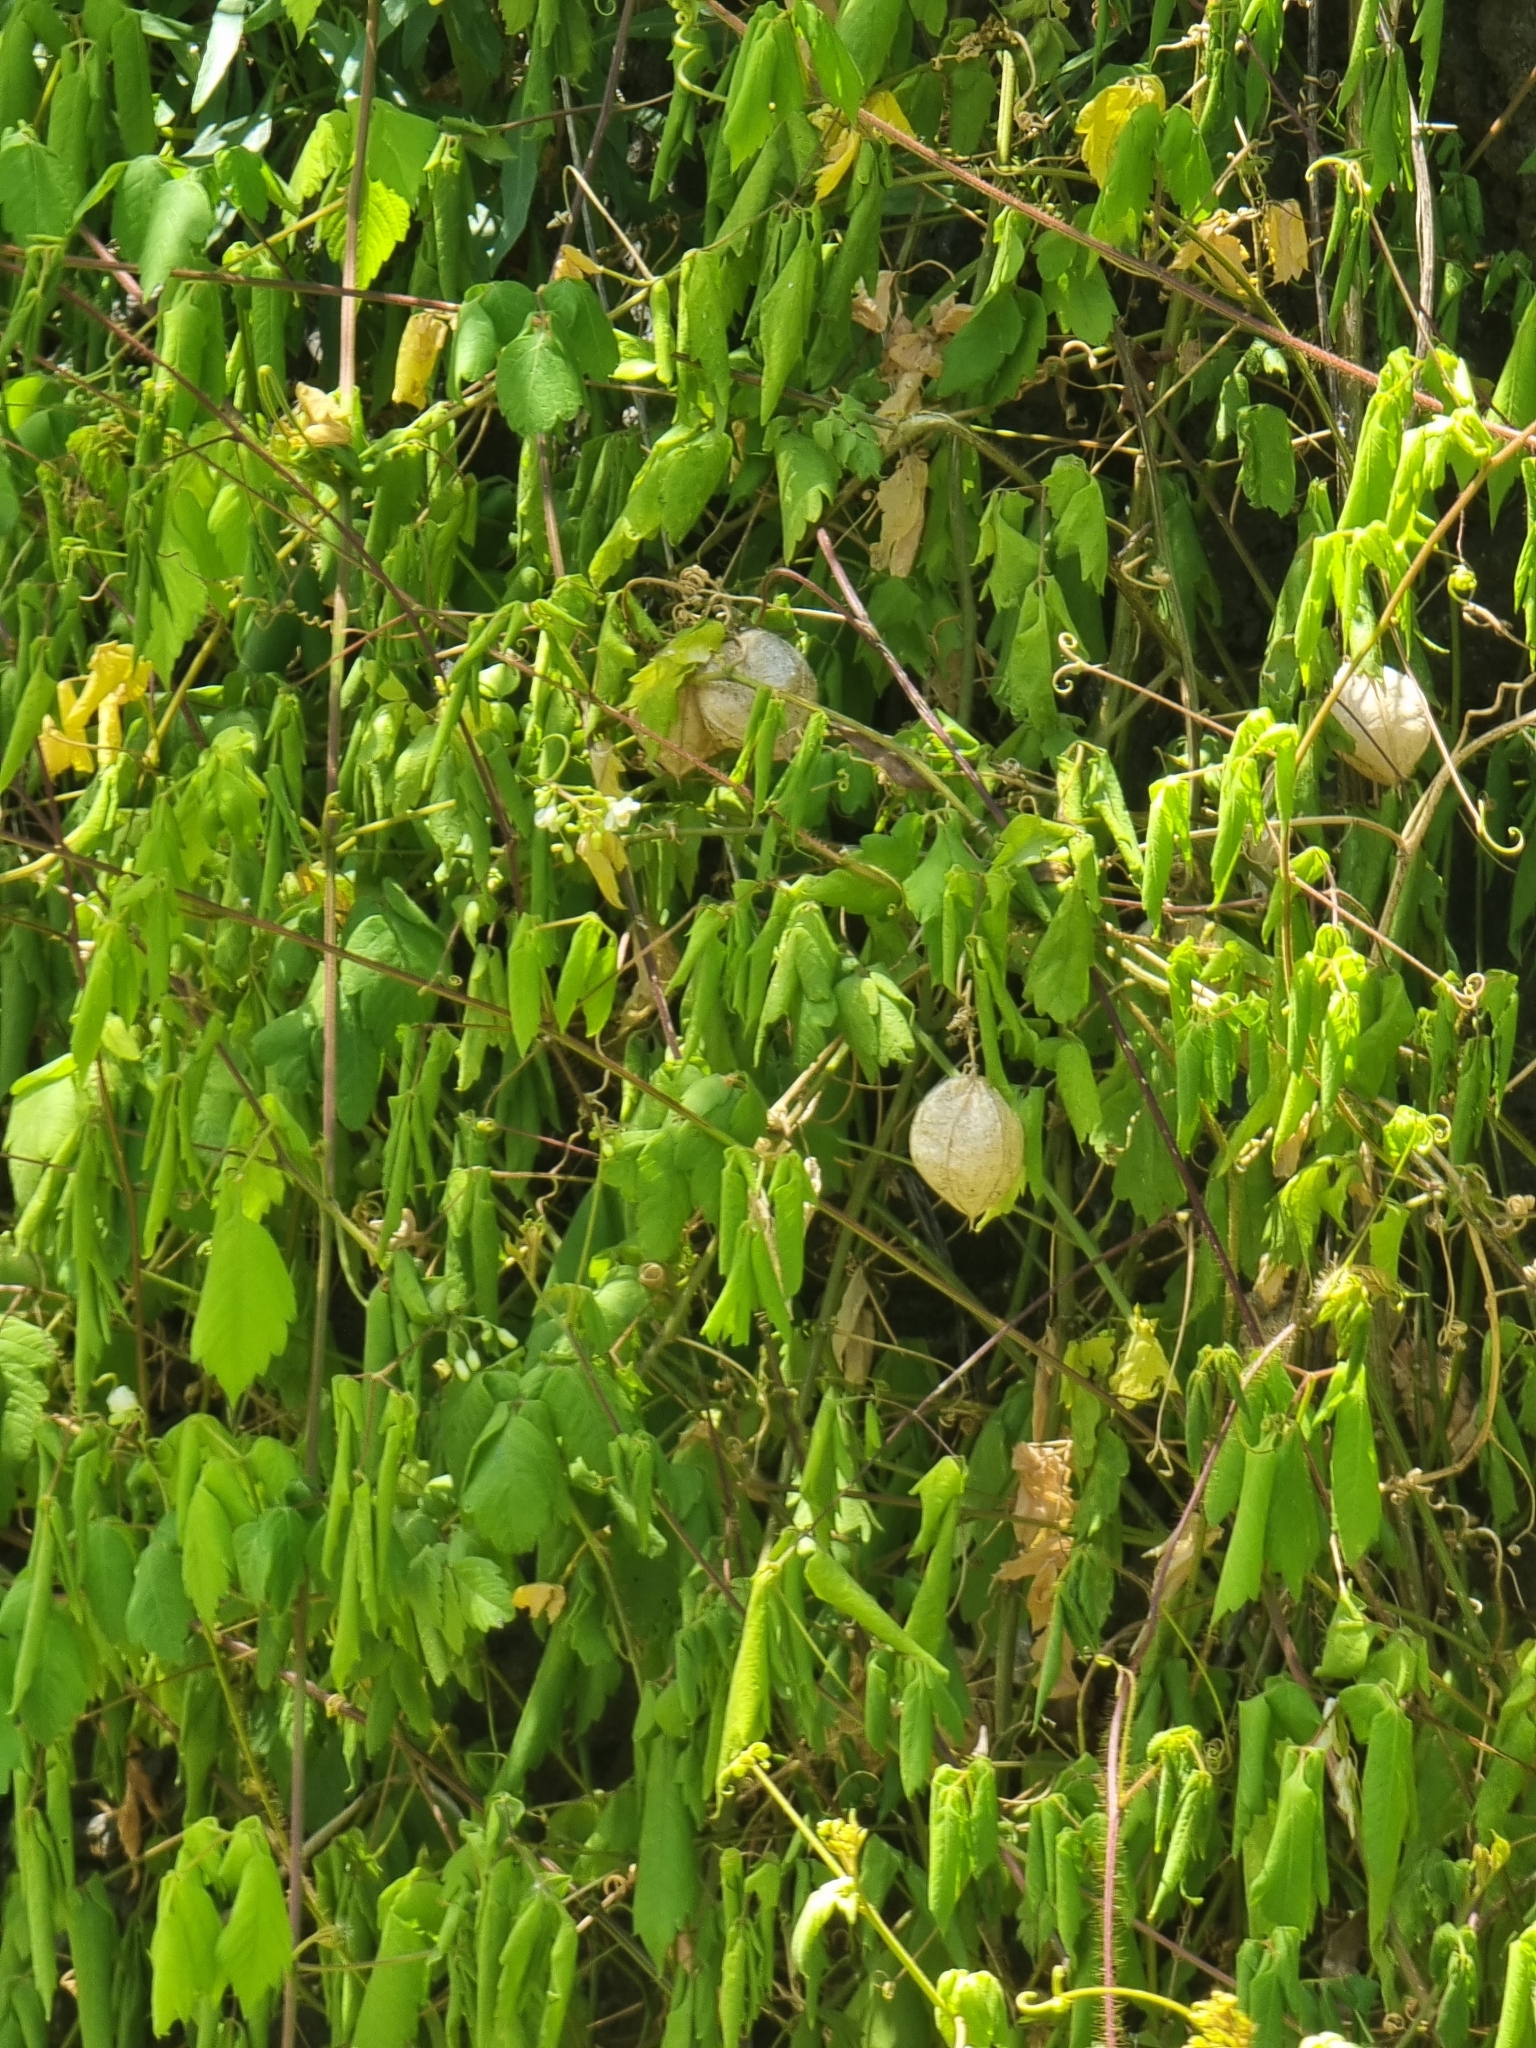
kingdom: Plantae
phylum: Tracheophyta
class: Magnoliopsida
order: Sapindales
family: Sapindaceae
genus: Cardiospermum
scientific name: Cardiospermum grandiflorum
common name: Balloon vine
